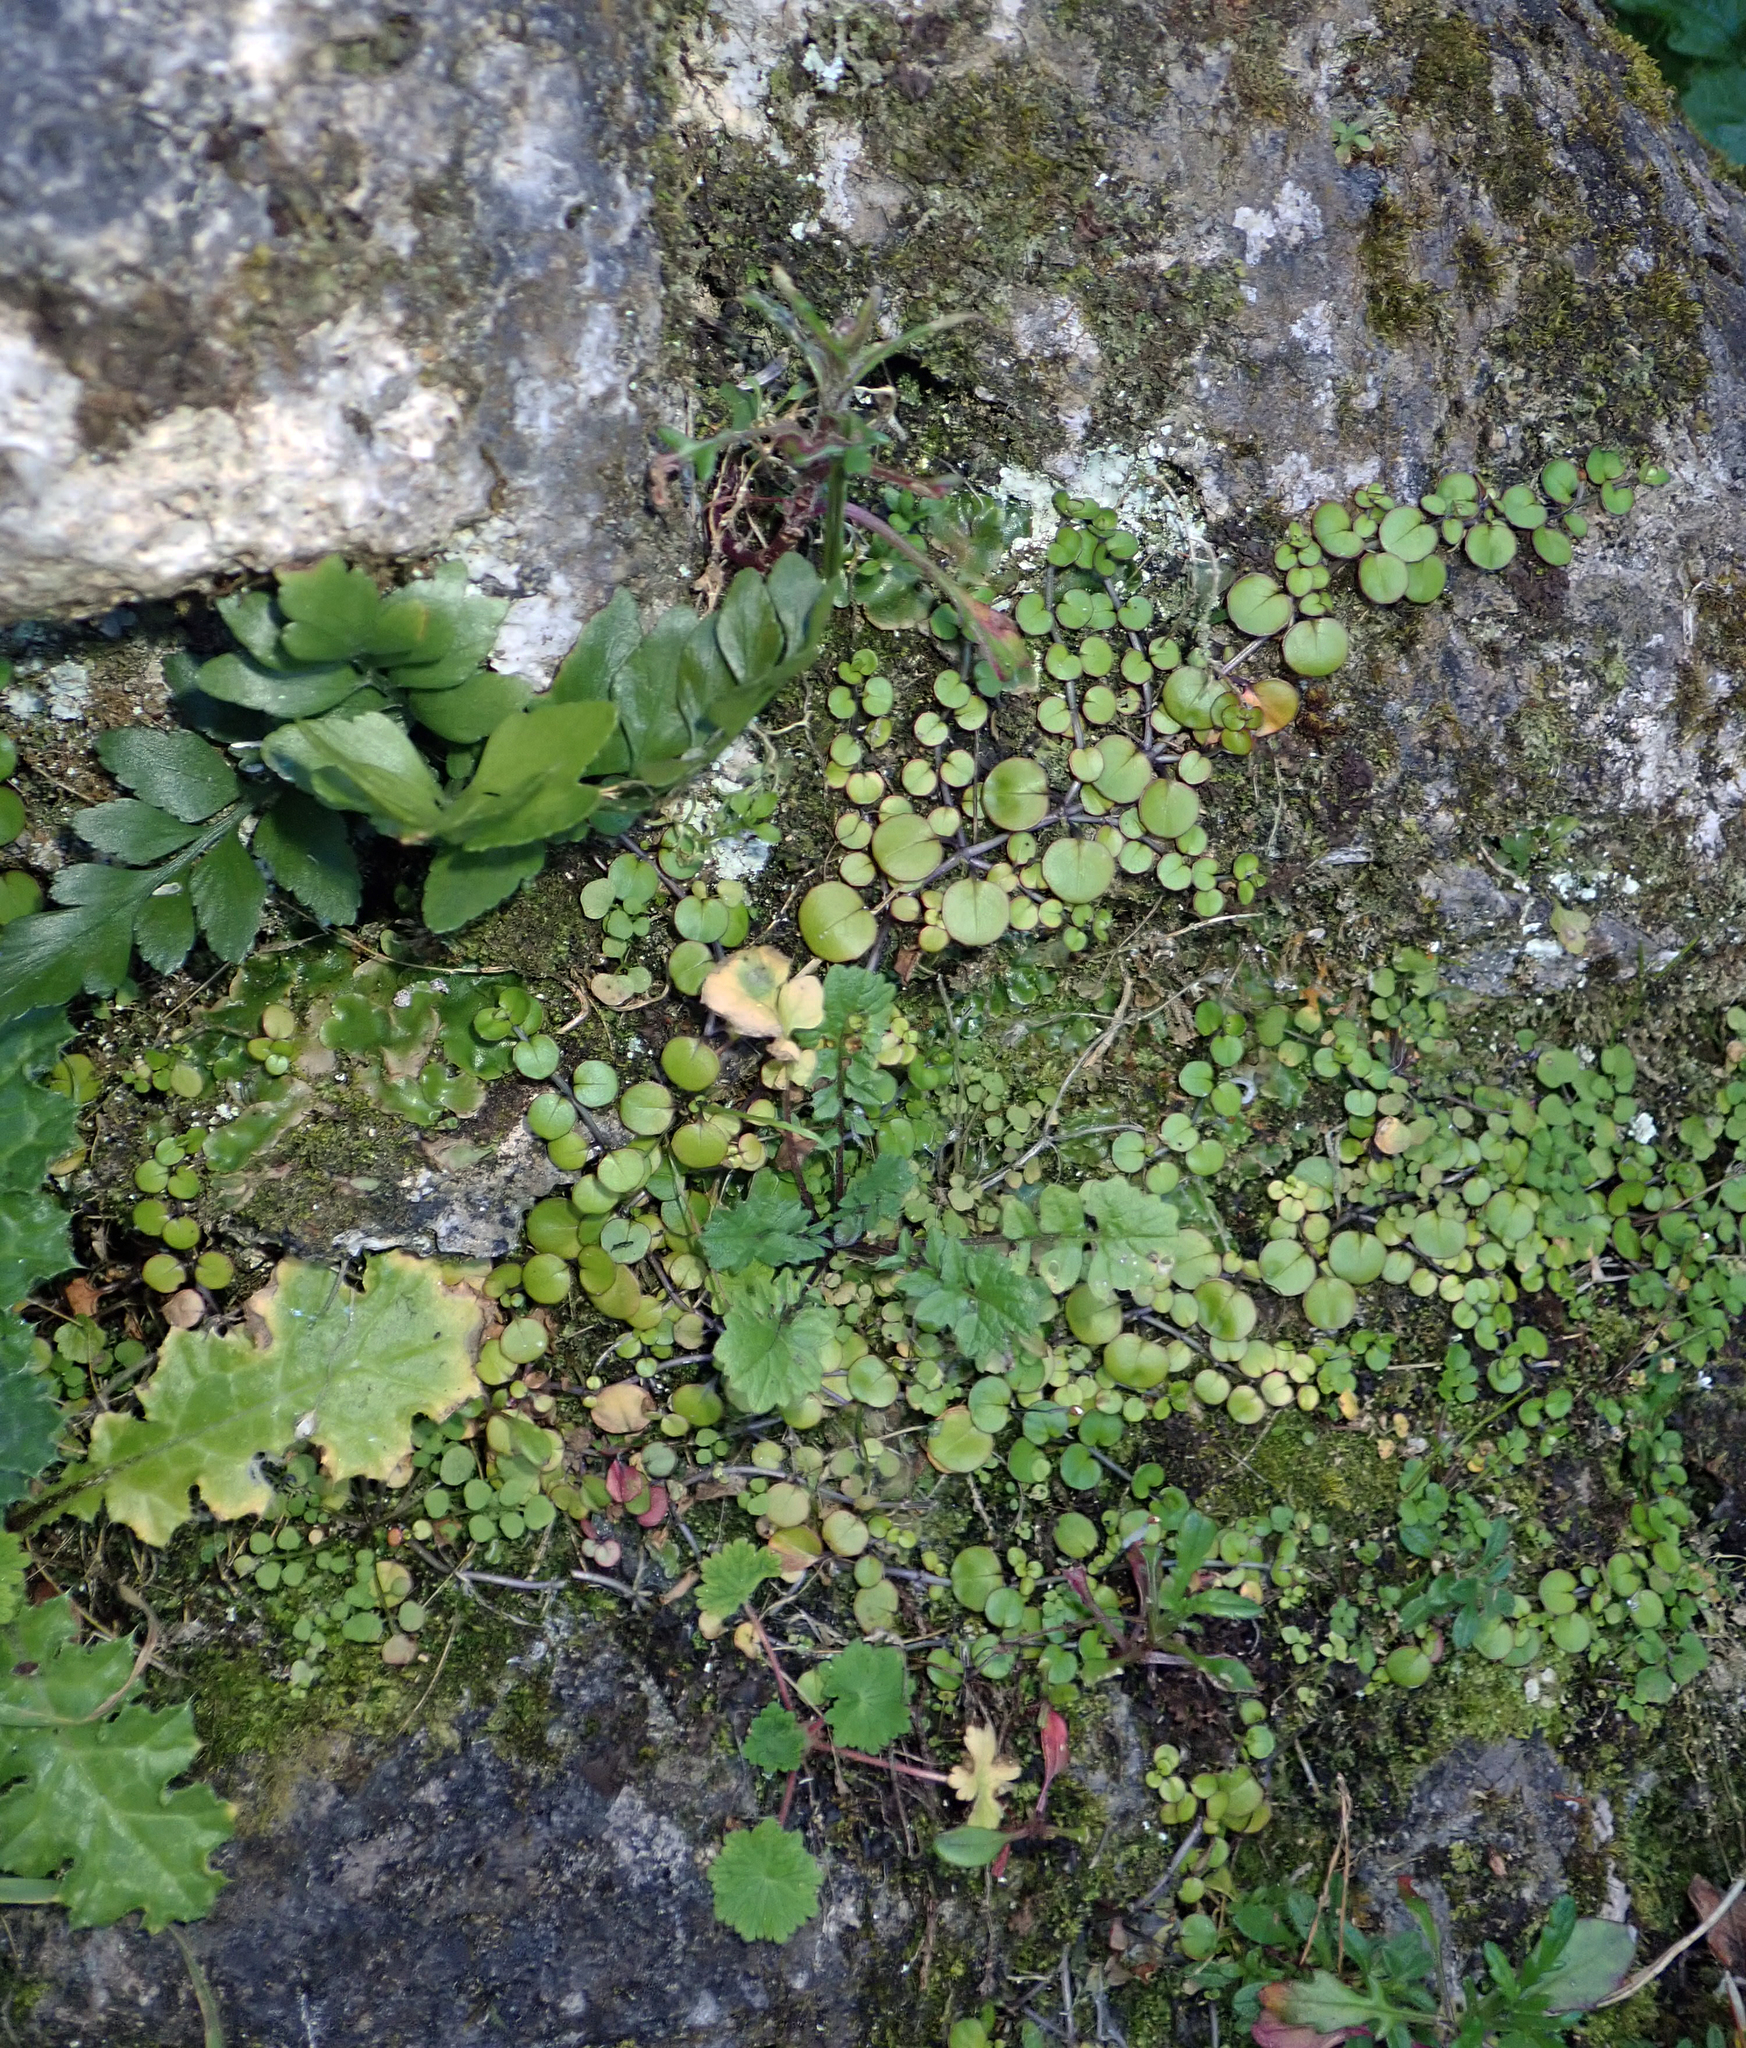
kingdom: Plantae
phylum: Tracheophyta
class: Magnoliopsida
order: Myrtales
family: Onagraceae
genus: Epilobium
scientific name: Epilobium nummularifolium
